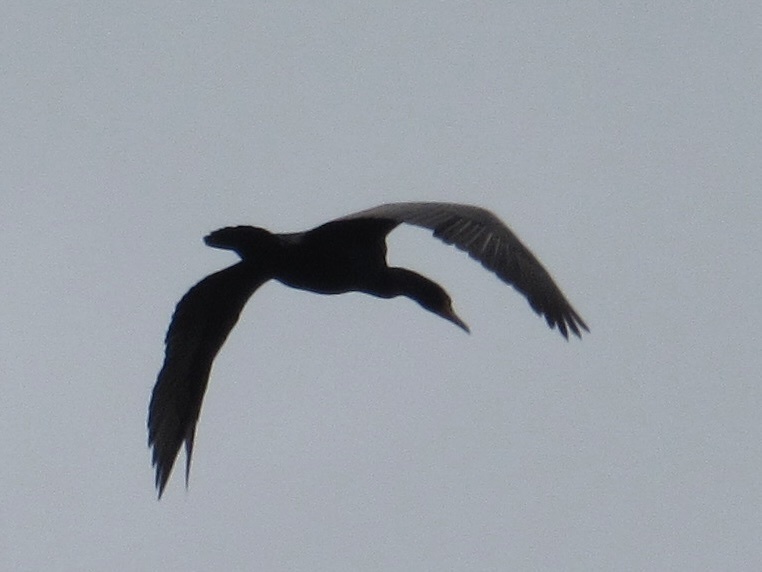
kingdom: Animalia
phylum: Chordata
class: Aves
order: Suliformes
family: Phalacrocoracidae
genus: Phalacrocorax
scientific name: Phalacrocorax auritus
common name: Double-crested cormorant
